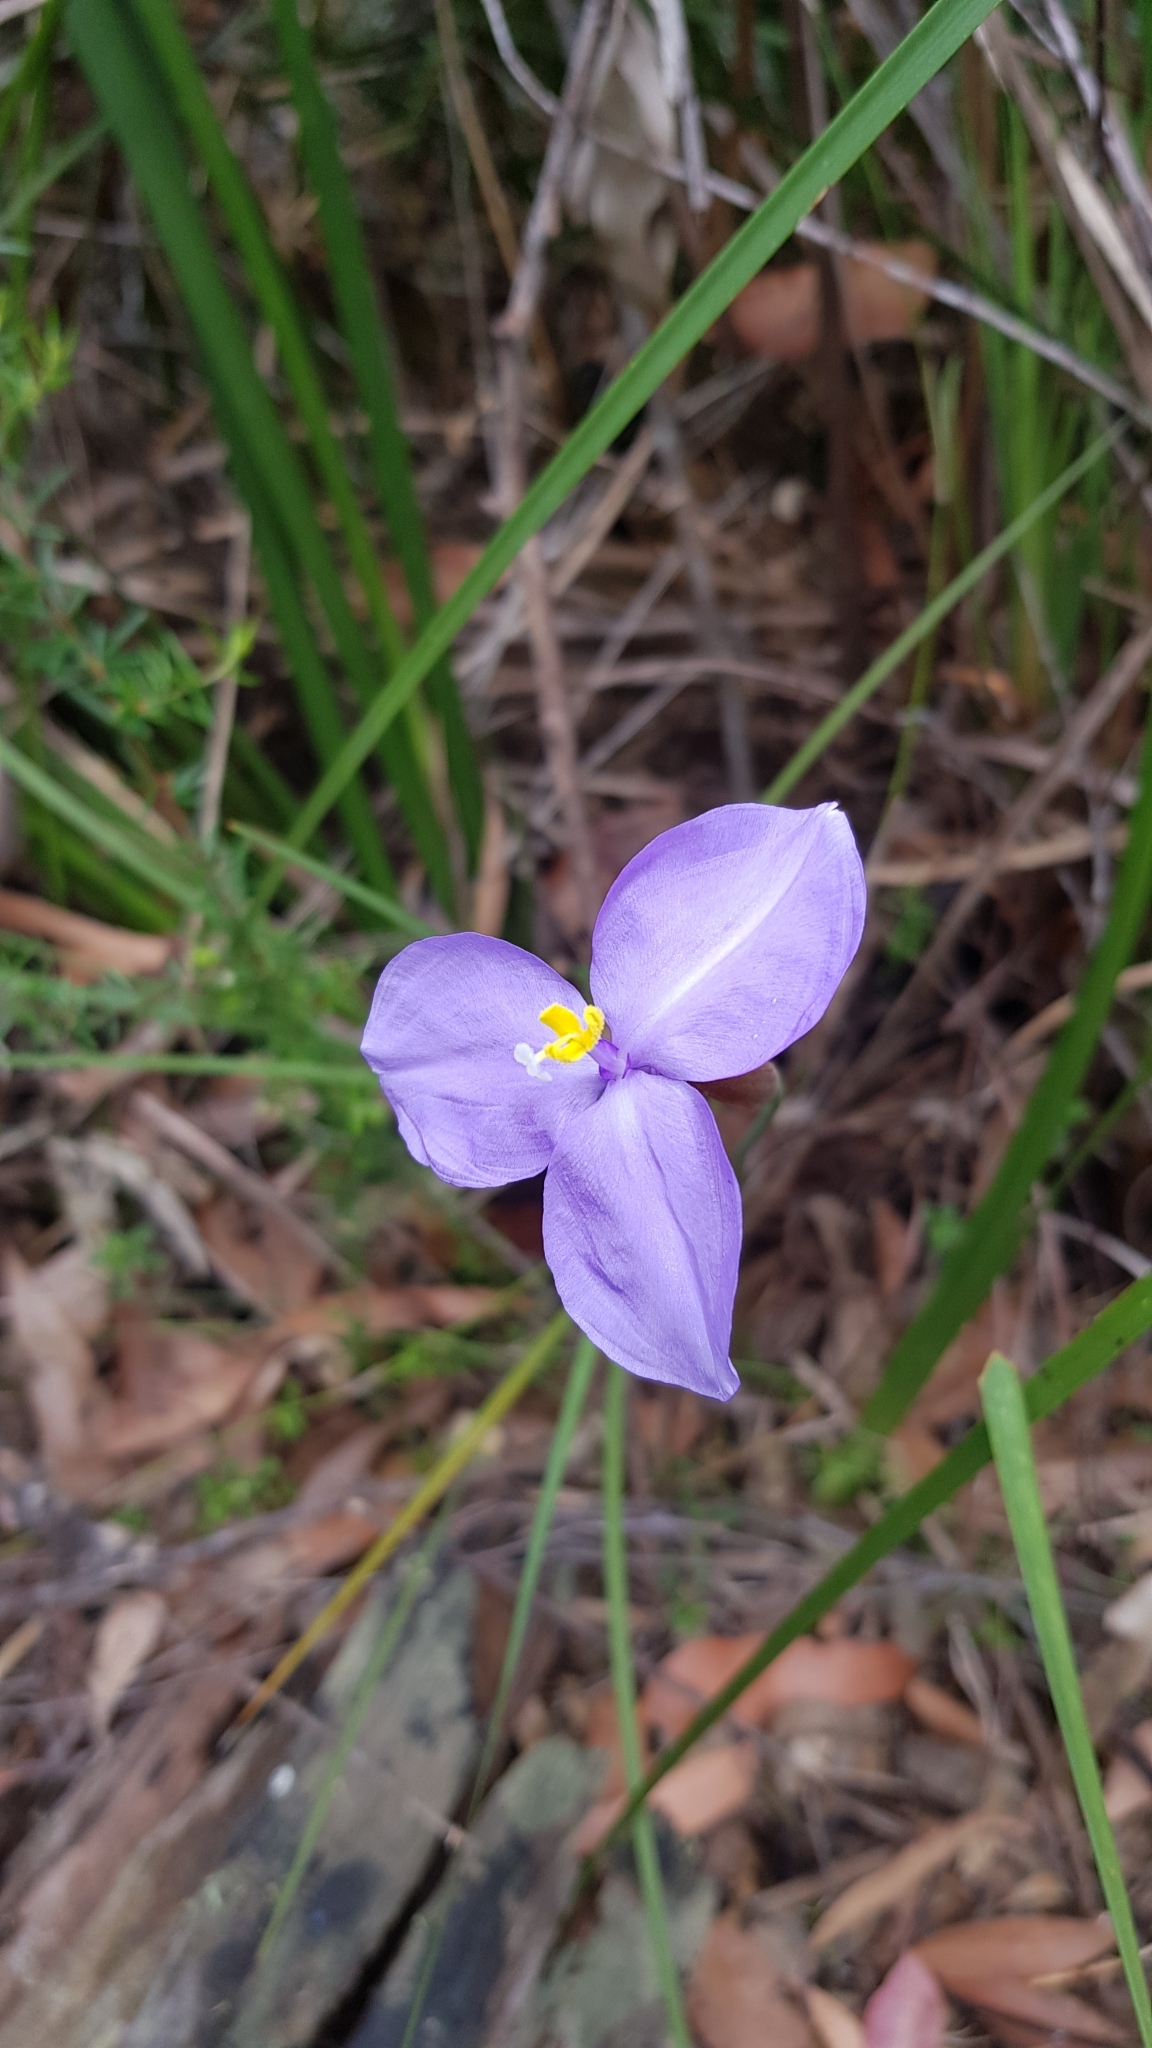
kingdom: Plantae
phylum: Tracheophyta
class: Liliopsida
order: Asparagales
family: Iridaceae
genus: Patersonia
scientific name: Patersonia glabrata
